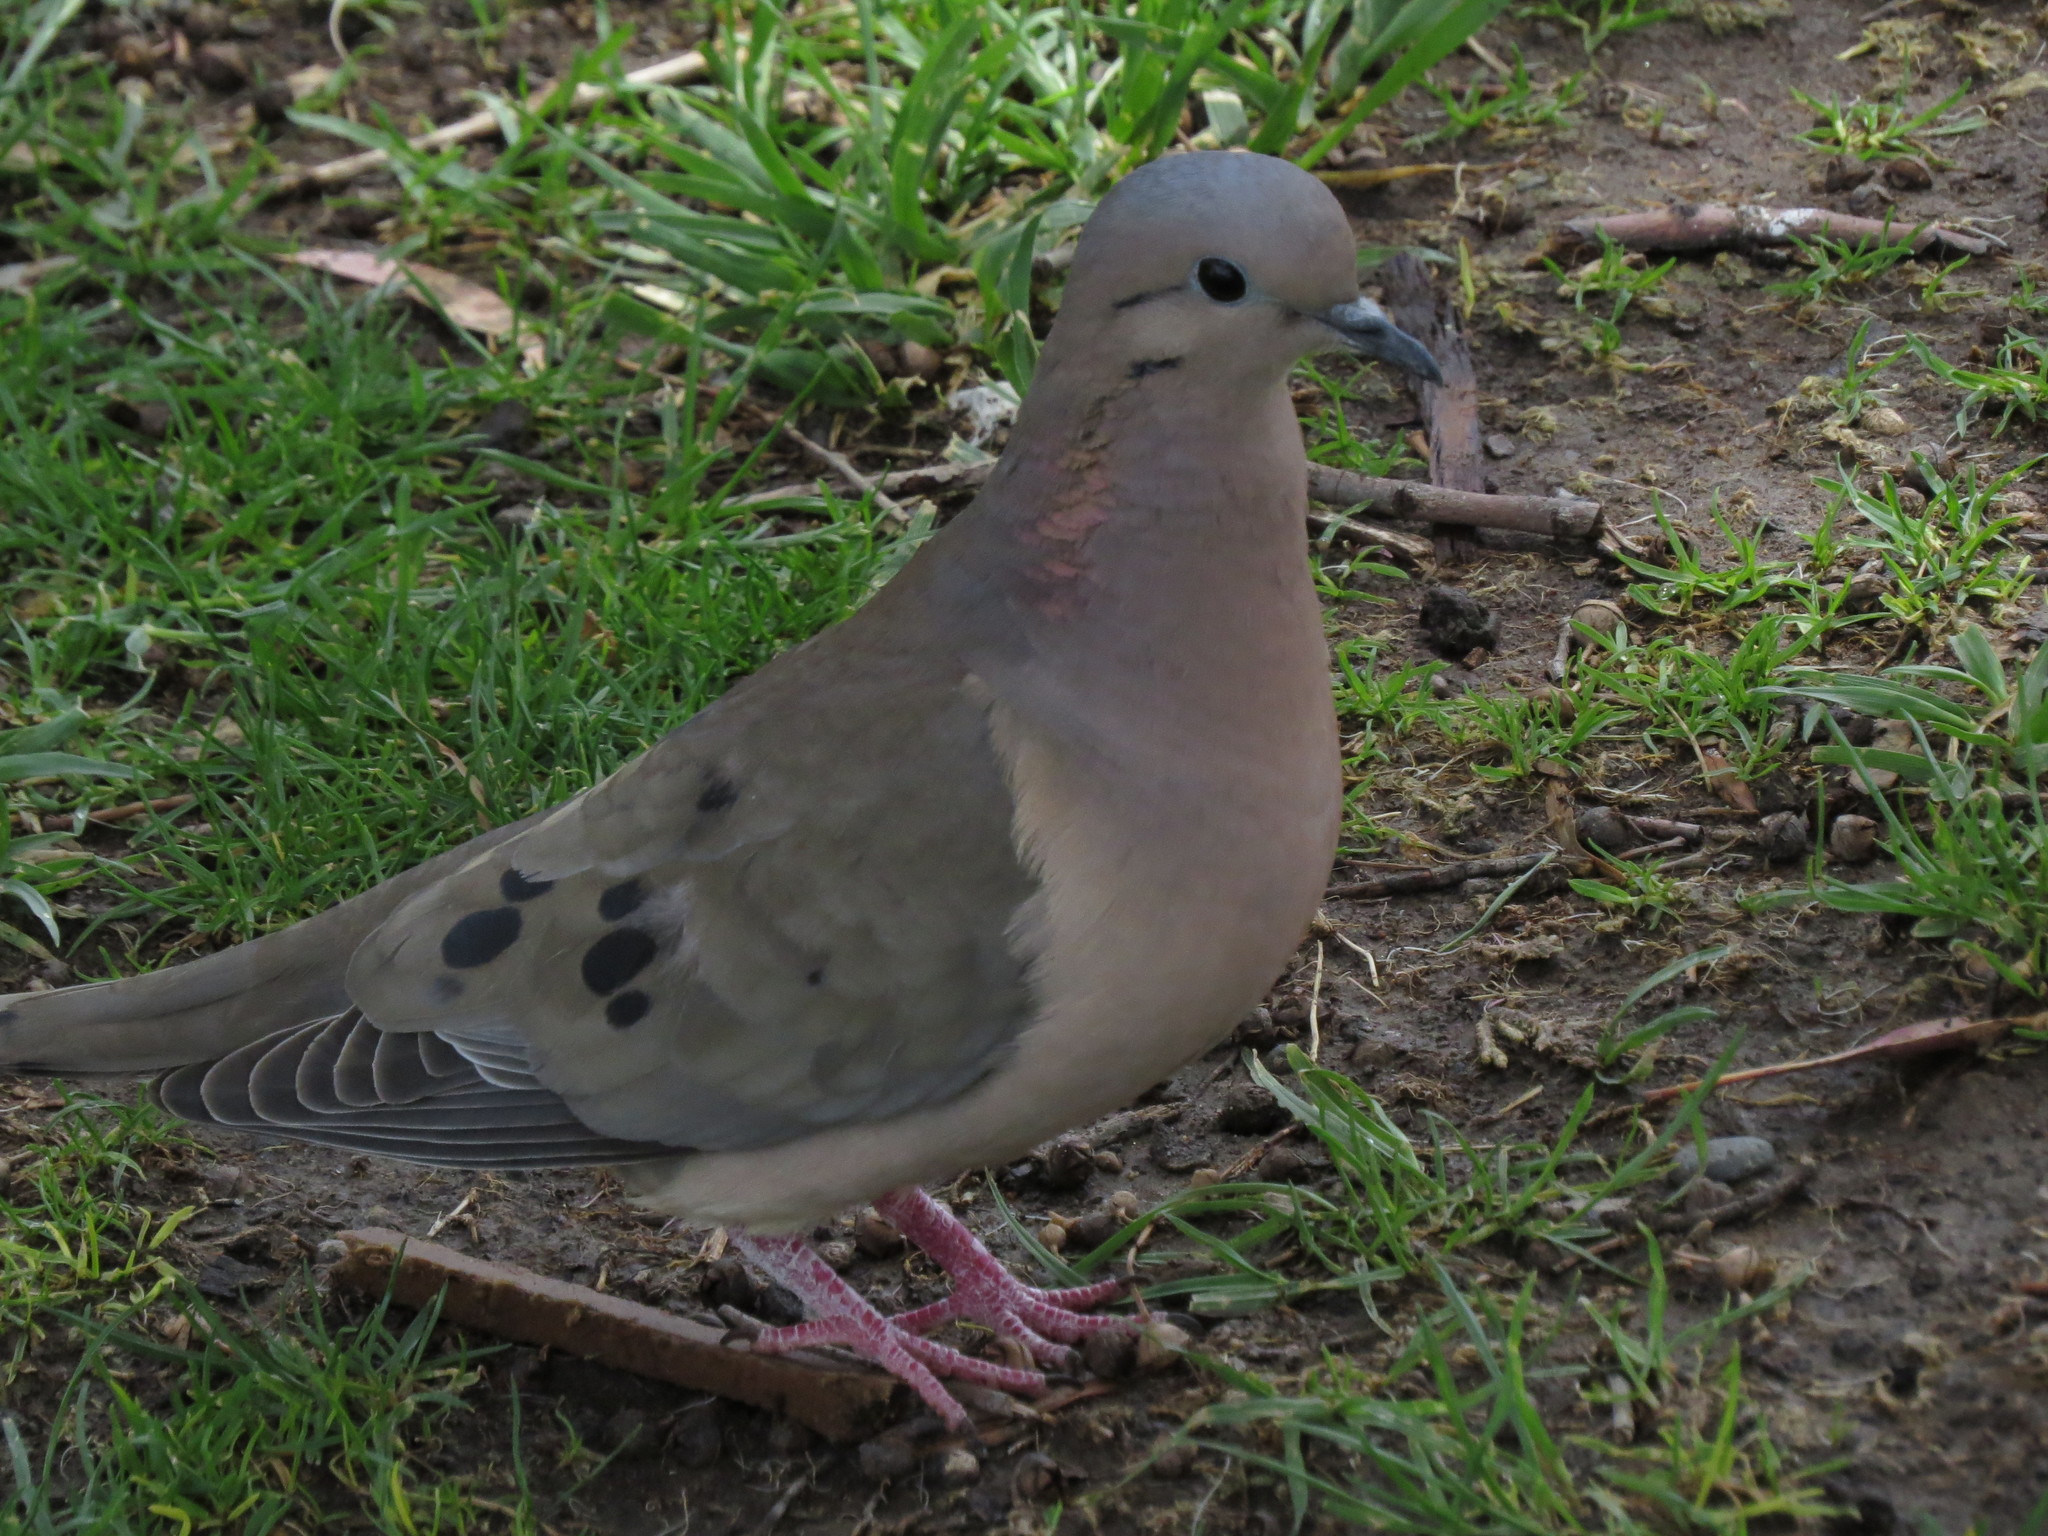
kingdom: Animalia
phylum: Chordata
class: Aves
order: Columbiformes
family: Columbidae
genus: Zenaida
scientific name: Zenaida auriculata
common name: Eared dove
